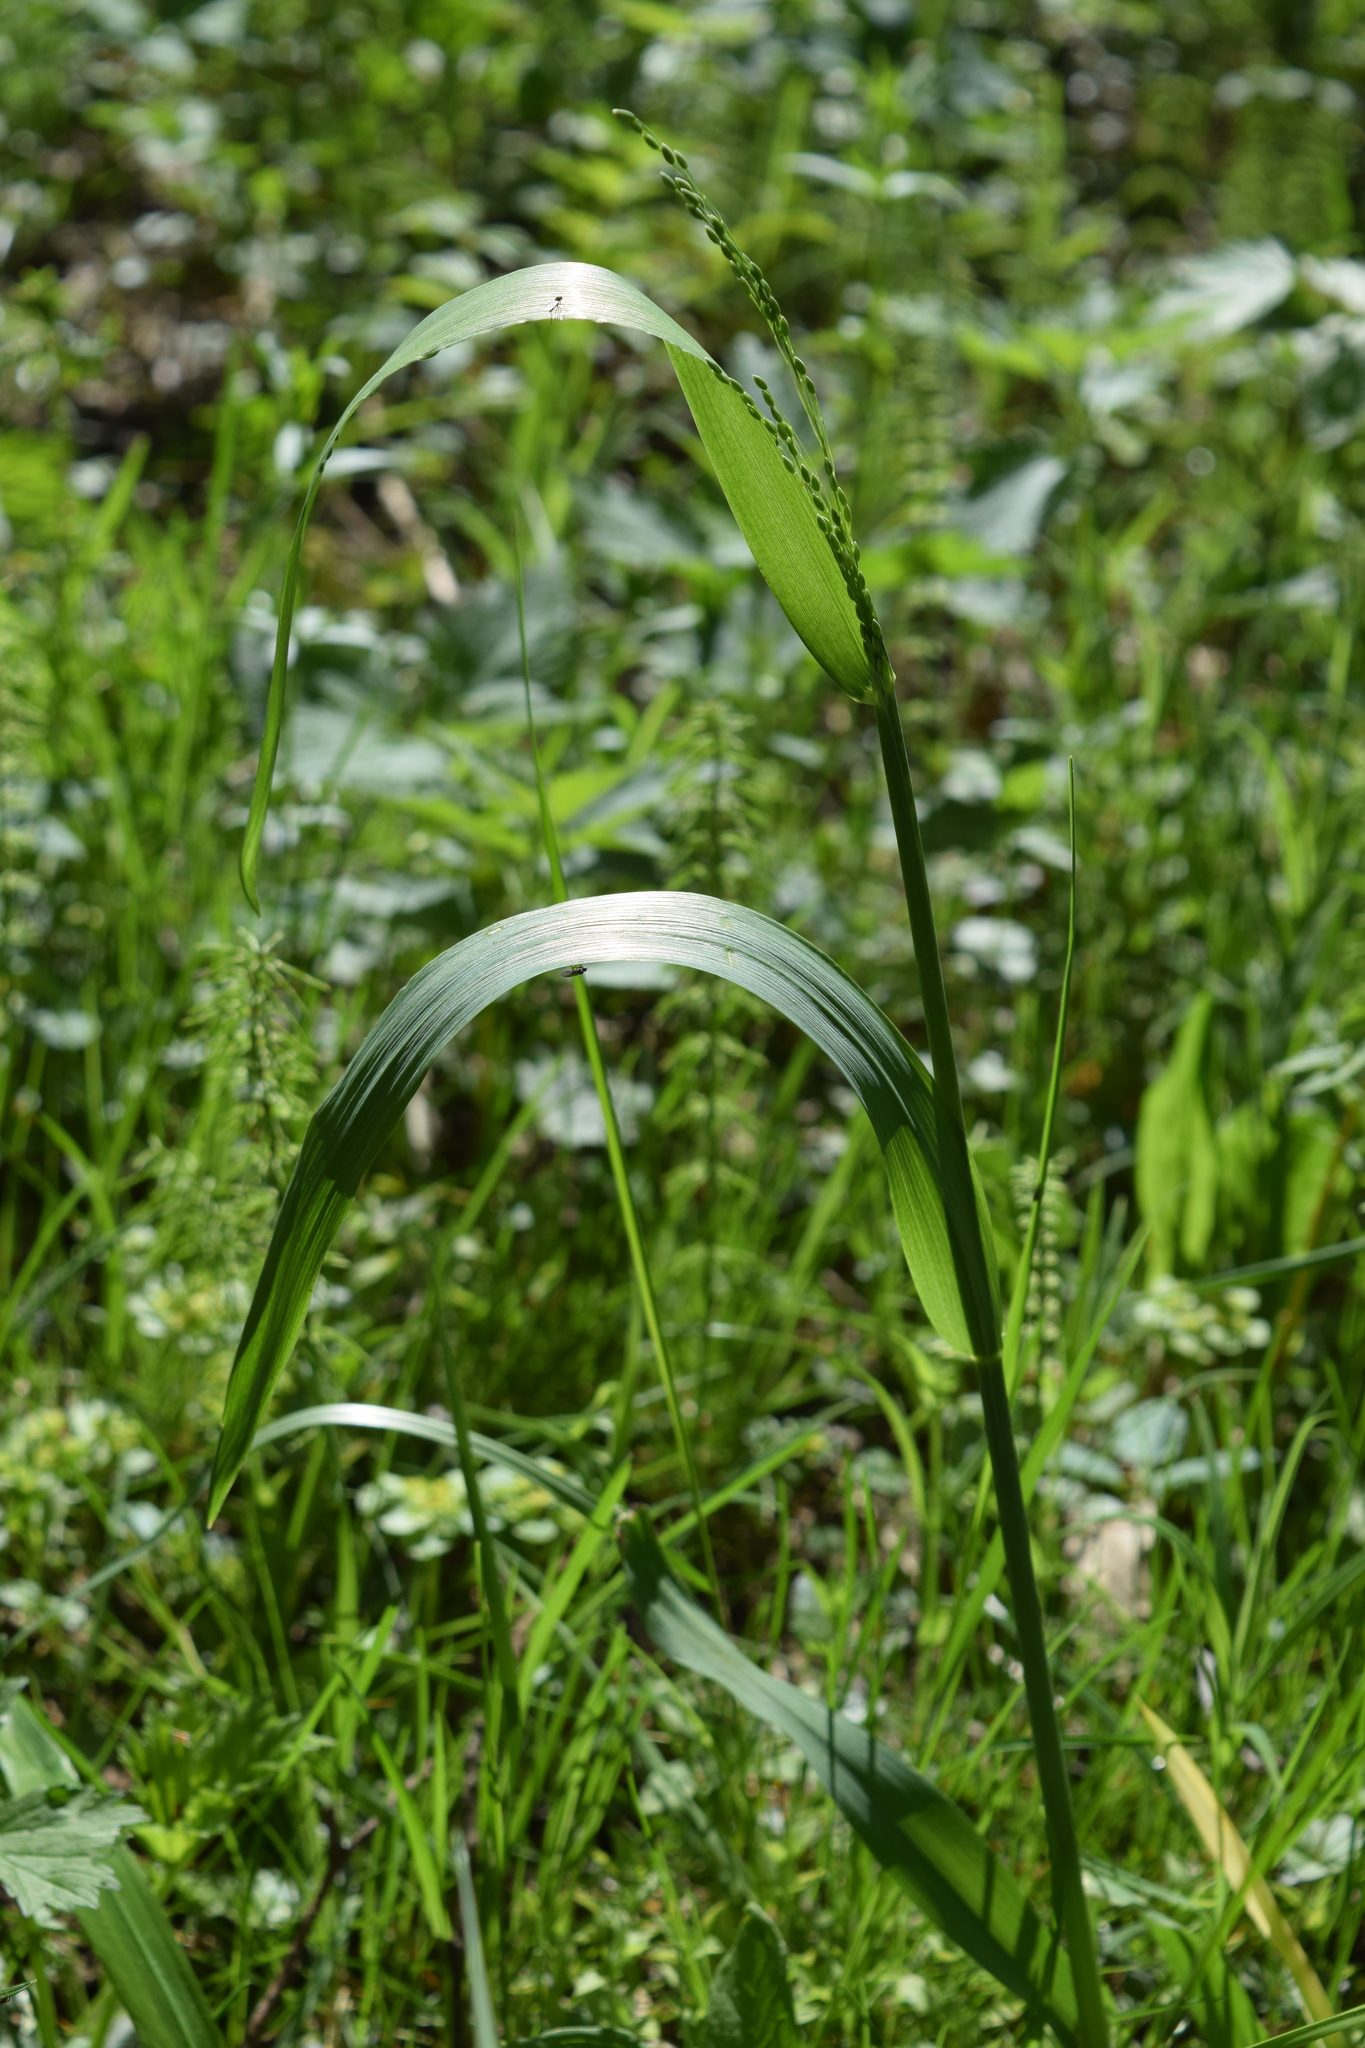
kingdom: Plantae
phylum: Tracheophyta
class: Liliopsida
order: Poales
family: Poaceae
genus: Milium
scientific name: Milium effusum
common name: Wood millet
